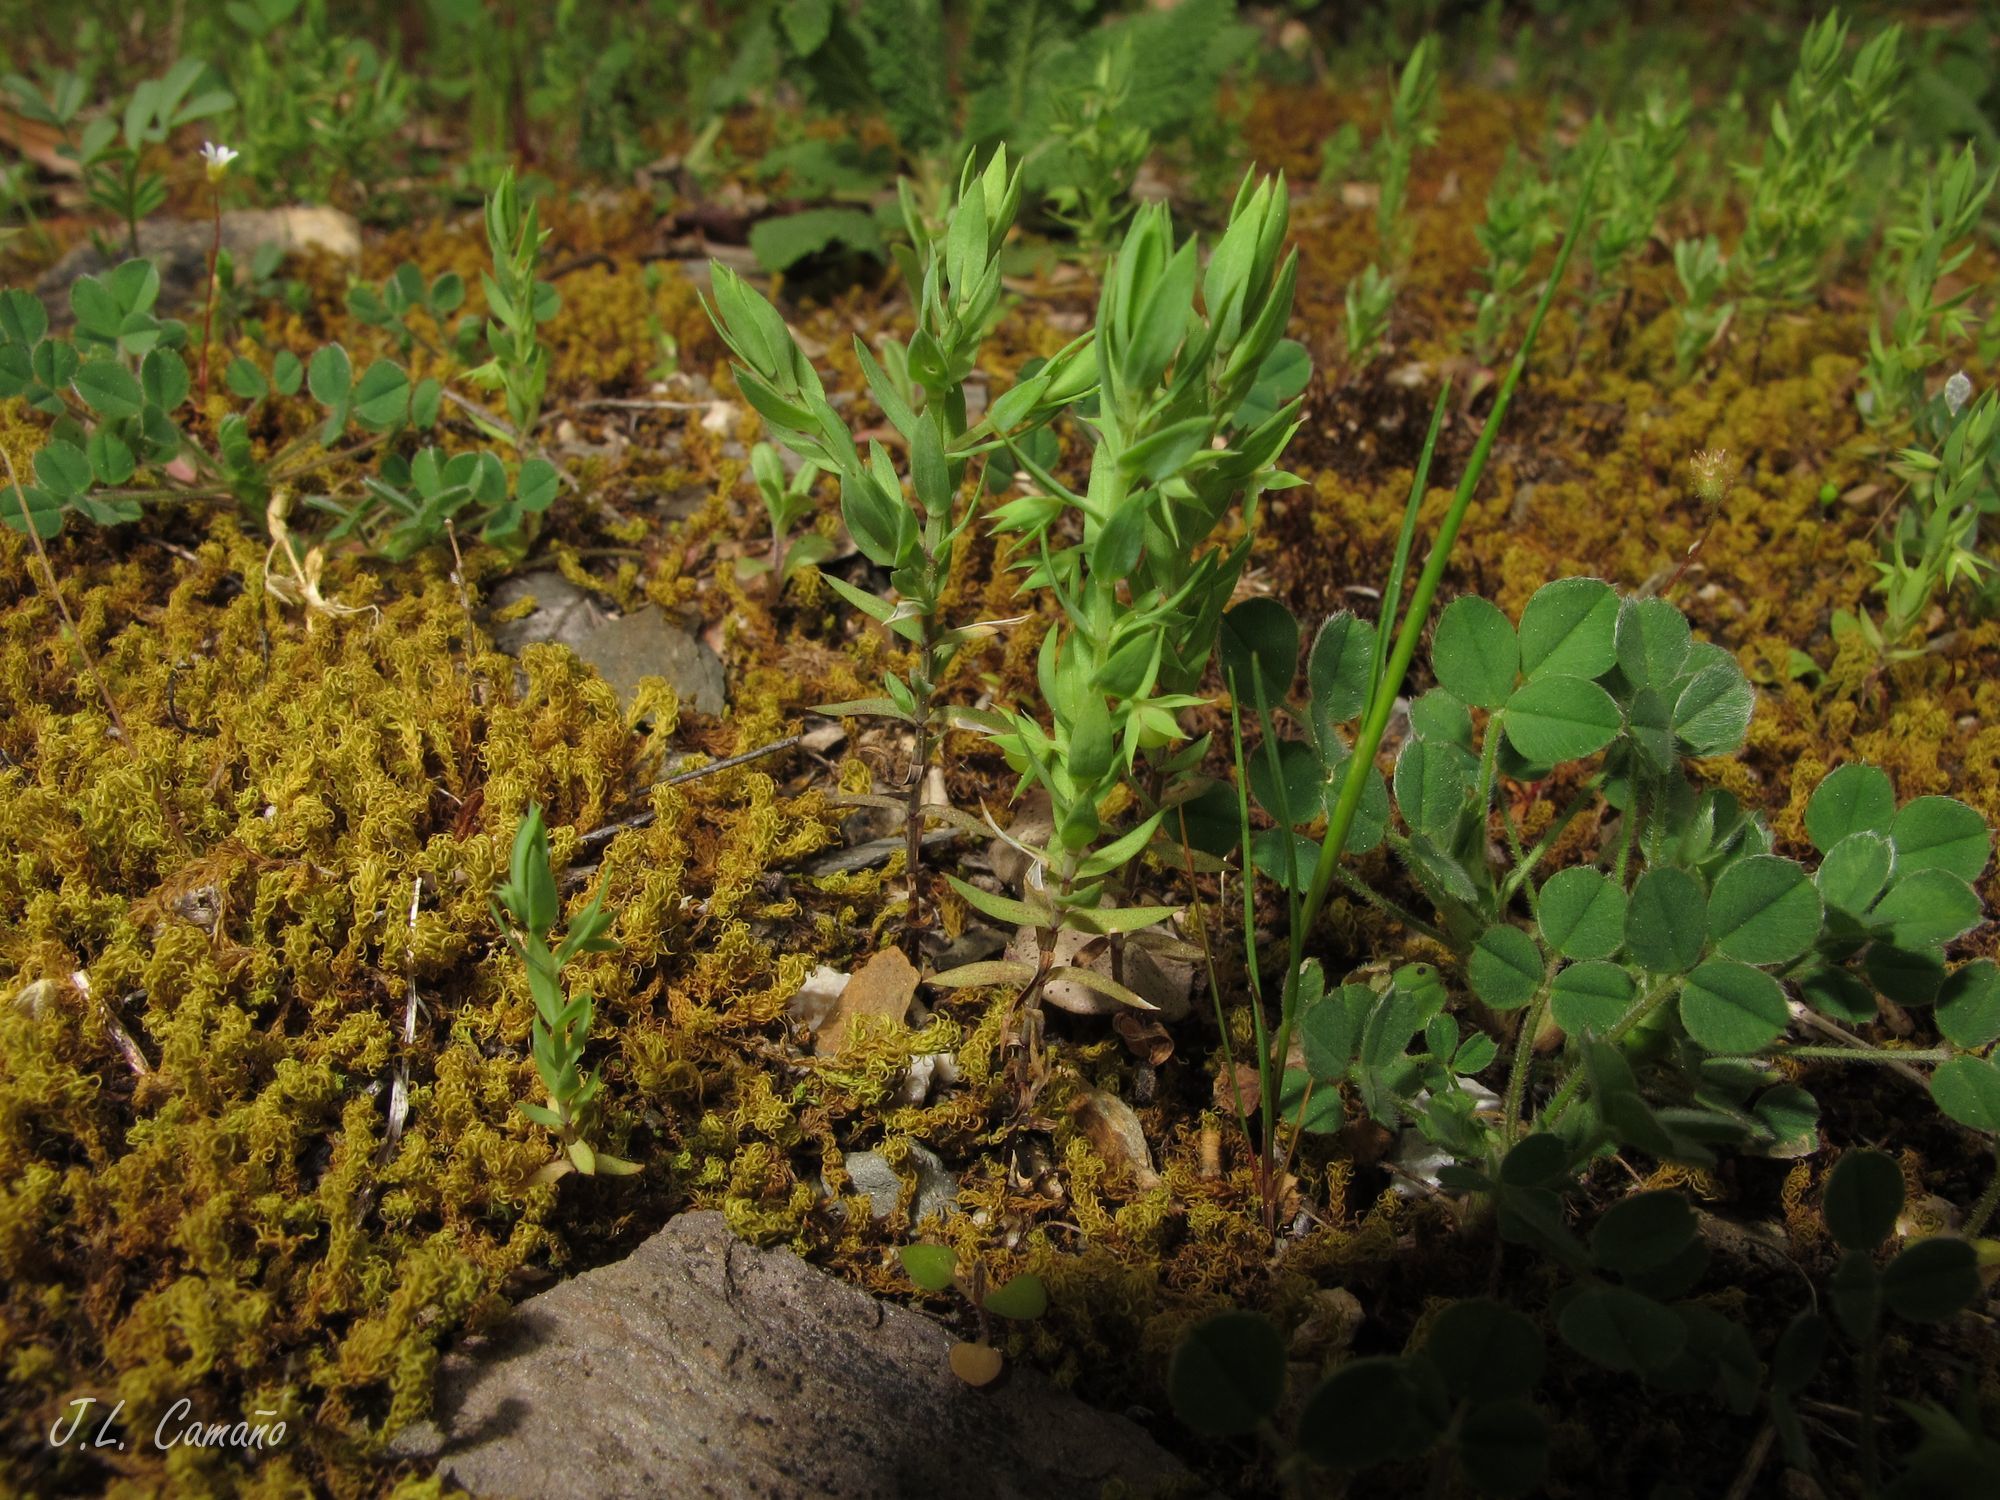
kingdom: Plantae
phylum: Tracheophyta
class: Magnoliopsida
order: Ericales
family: Primulaceae
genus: Lysimachia
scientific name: Lysimachia linum-stellatum
